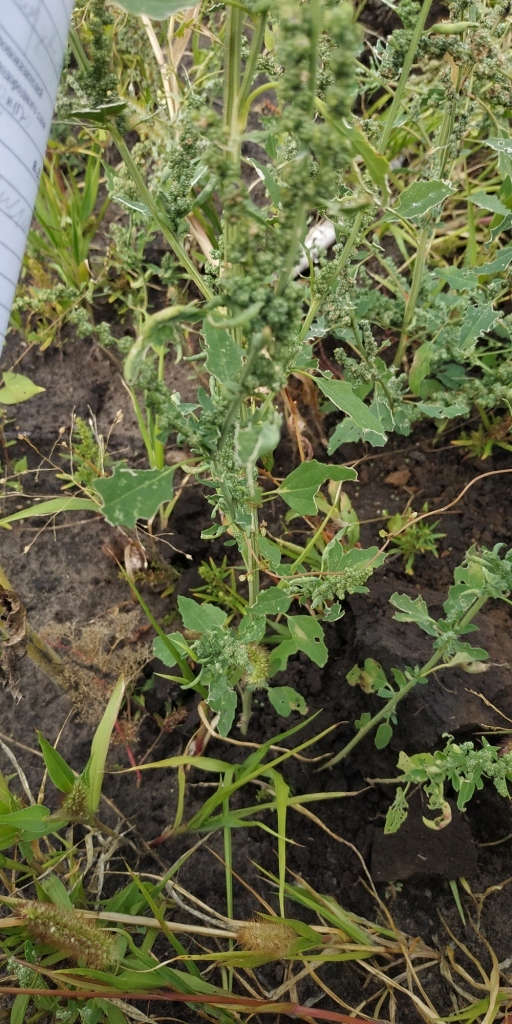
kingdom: Plantae
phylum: Tracheophyta
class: Magnoliopsida
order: Caryophyllales
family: Amaranthaceae
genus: Chenopodium
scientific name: Chenopodium album
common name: Fat-hen
